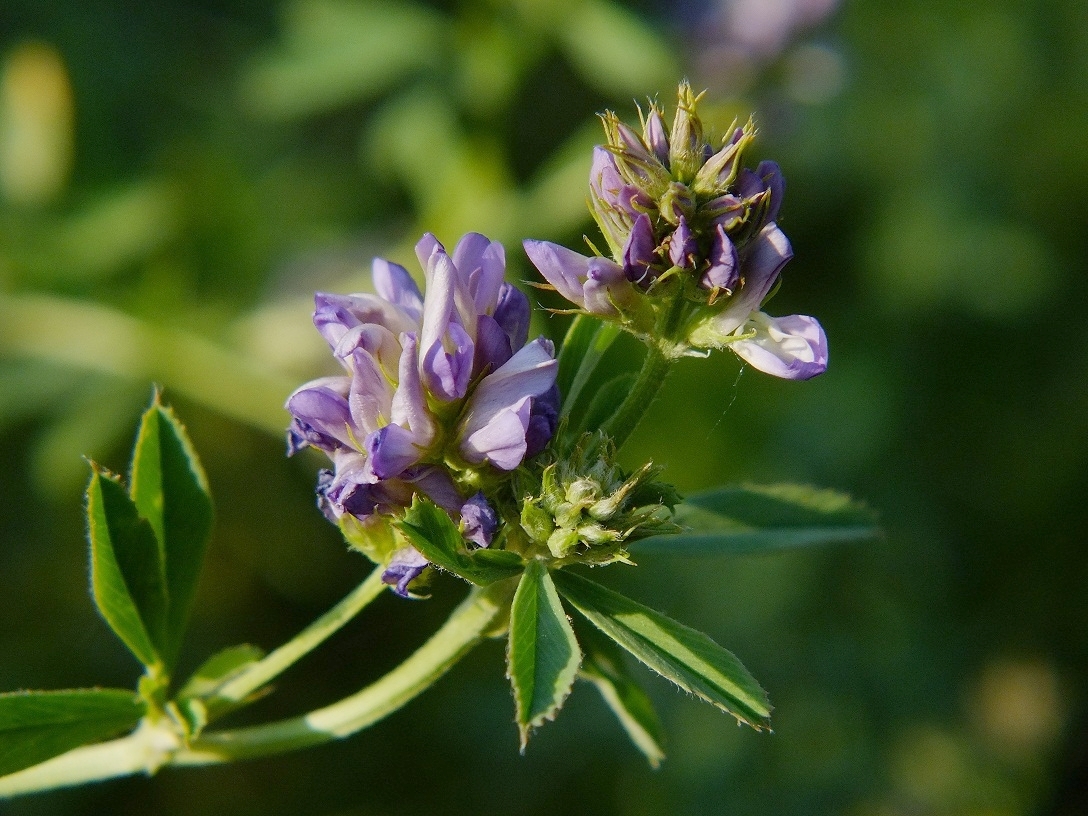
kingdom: Plantae
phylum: Tracheophyta
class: Magnoliopsida
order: Fabales
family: Fabaceae
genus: Medicago
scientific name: Medicago sativa
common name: Alfalfa
